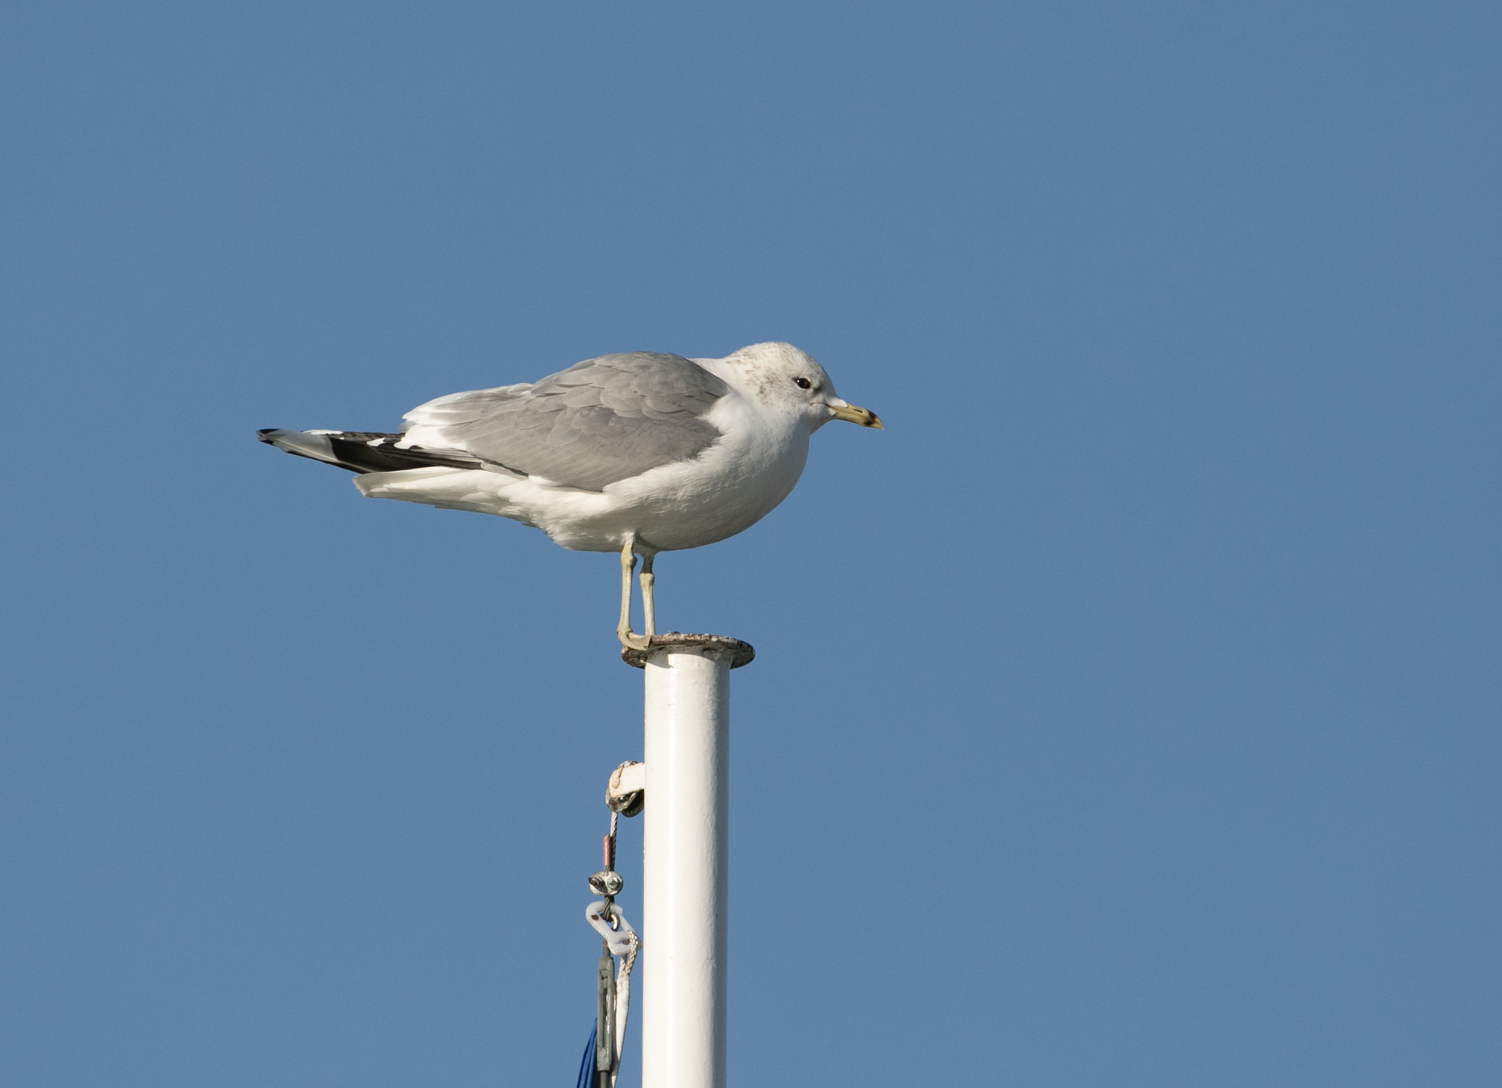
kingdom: Animalia
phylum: Chordata
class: Aves
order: Charadriiformes
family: Laridae
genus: Larus
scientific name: Larus canus
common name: Mew gull
